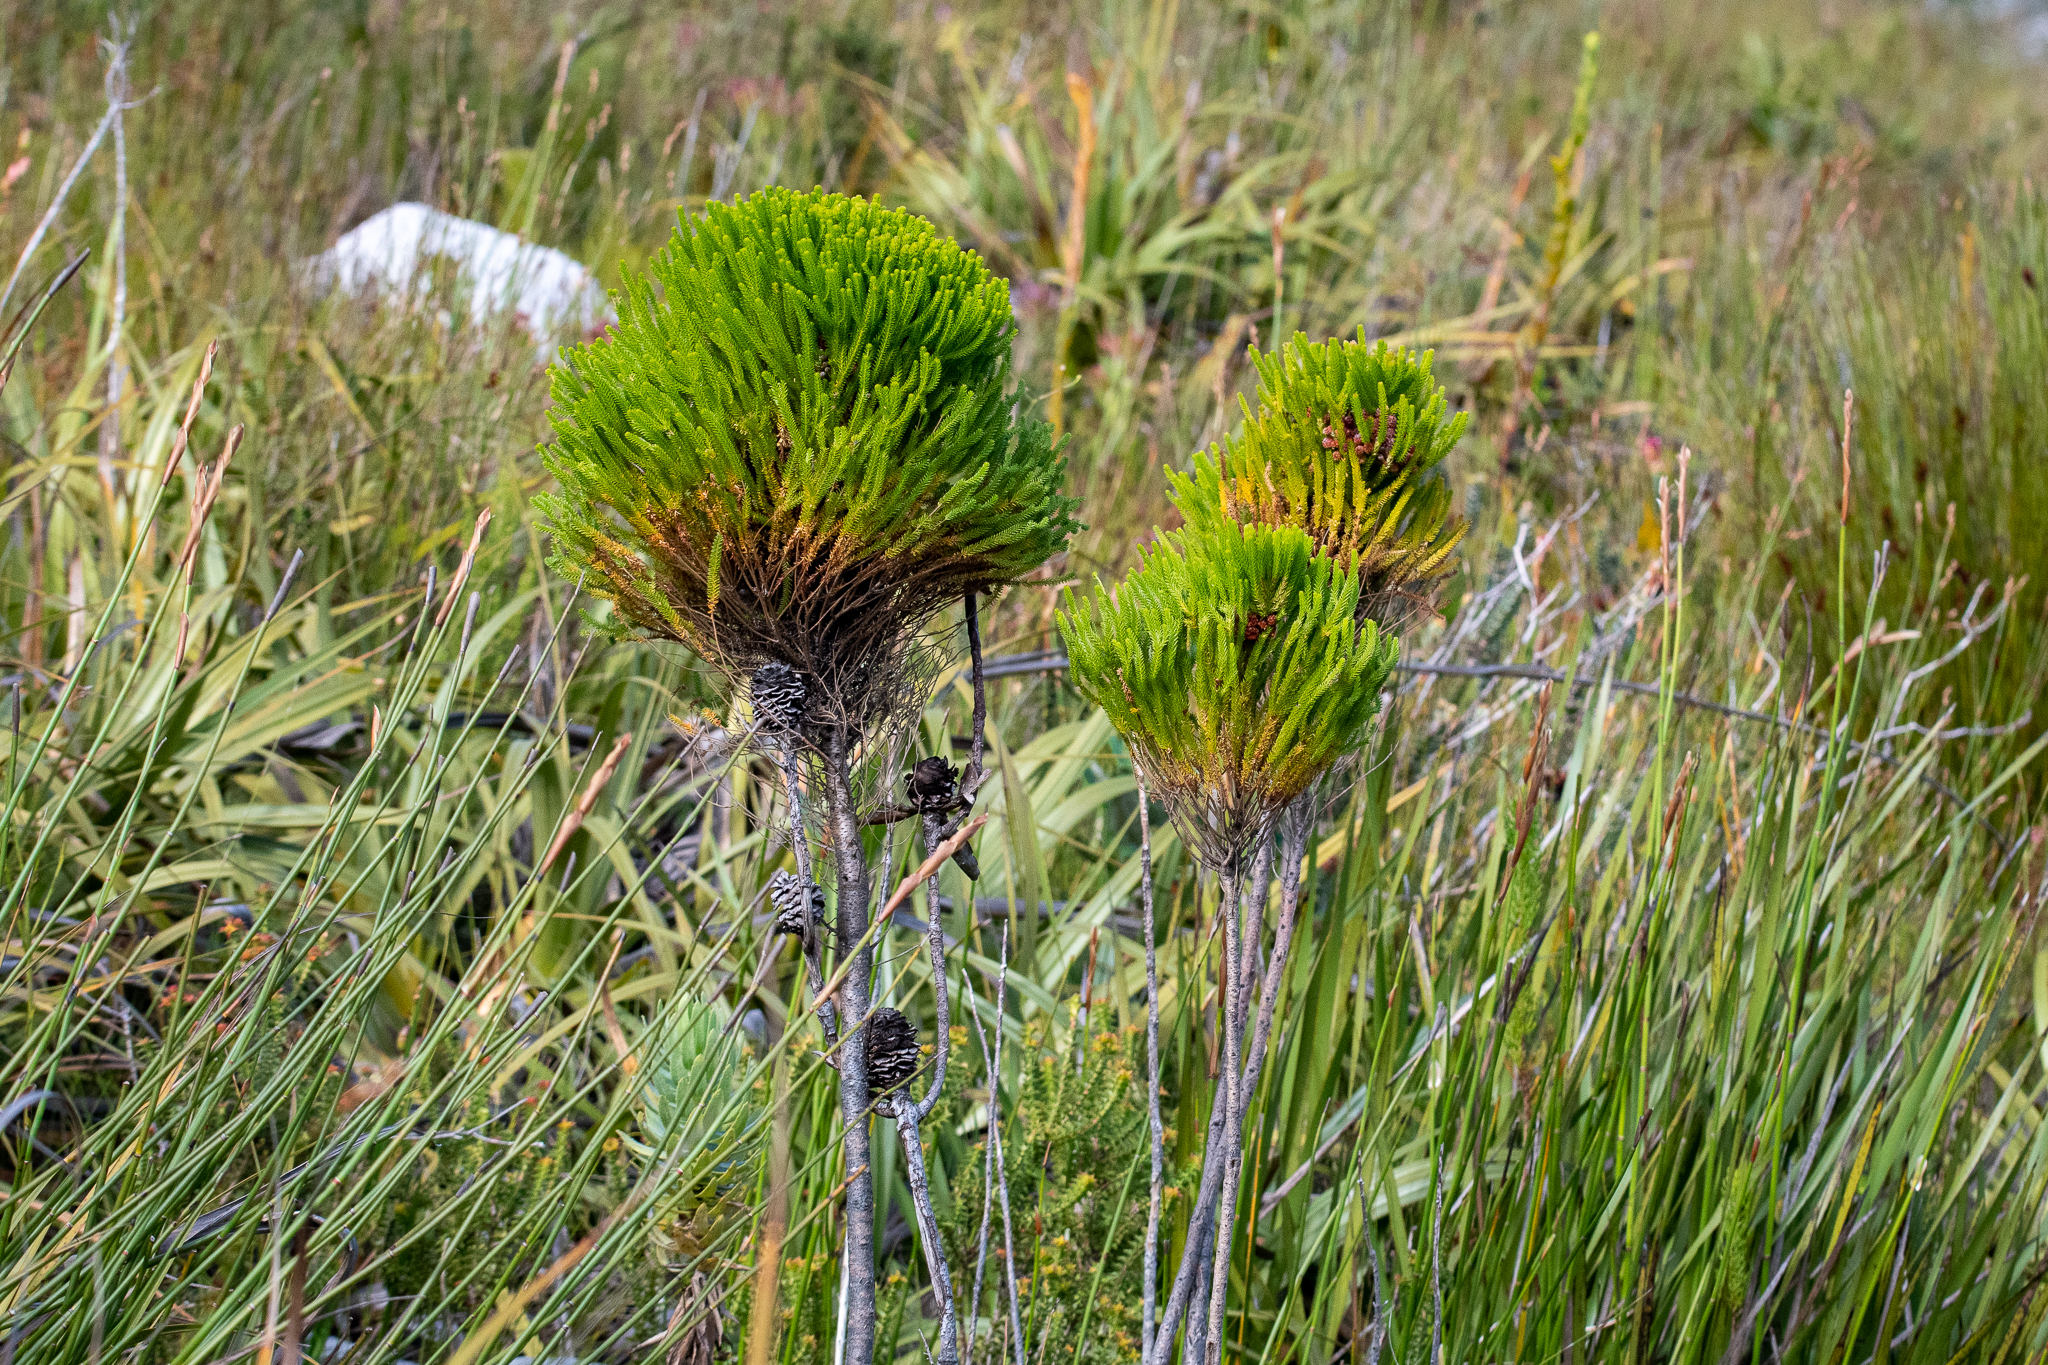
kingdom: Plantae
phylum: Tracheophyta
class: Magnoliopsida
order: Bruniales
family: Bruniaceae
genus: Berzelia
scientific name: Berzelia alopecurioides
